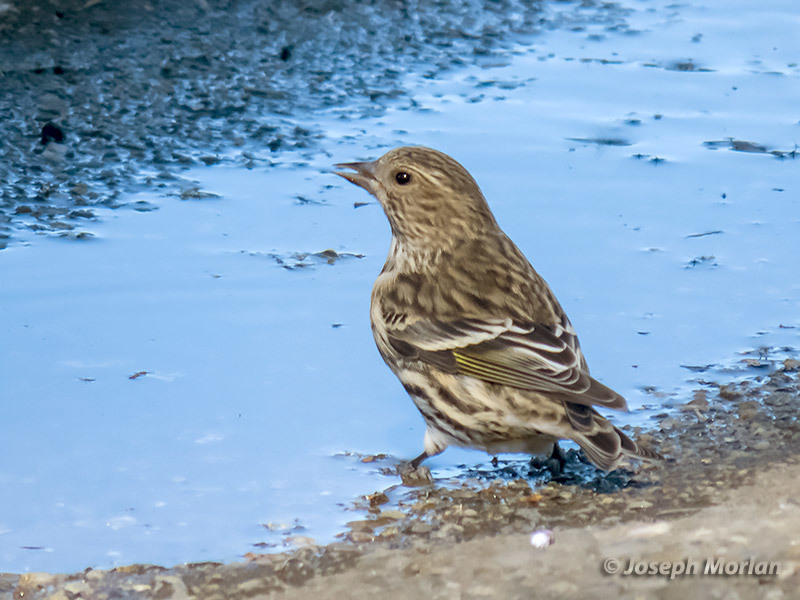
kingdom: Animalia
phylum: Chordata
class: Aves
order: Passeriformes
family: Fringillidae
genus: Spinus
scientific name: Spinus pinus
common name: Pine siskin
